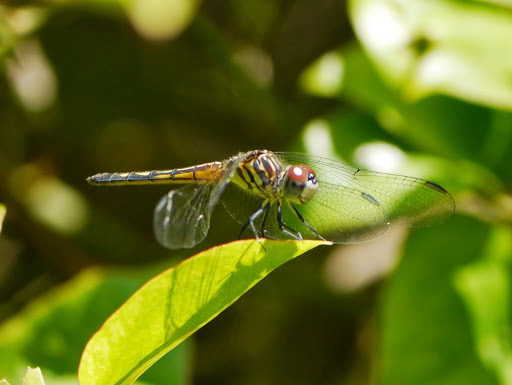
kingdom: Animalia
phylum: Arthropoda
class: Insecta
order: Odonata
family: Libellulidae
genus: Pachydiplax
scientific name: Pachydiplax longipennis
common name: Blue dasher
